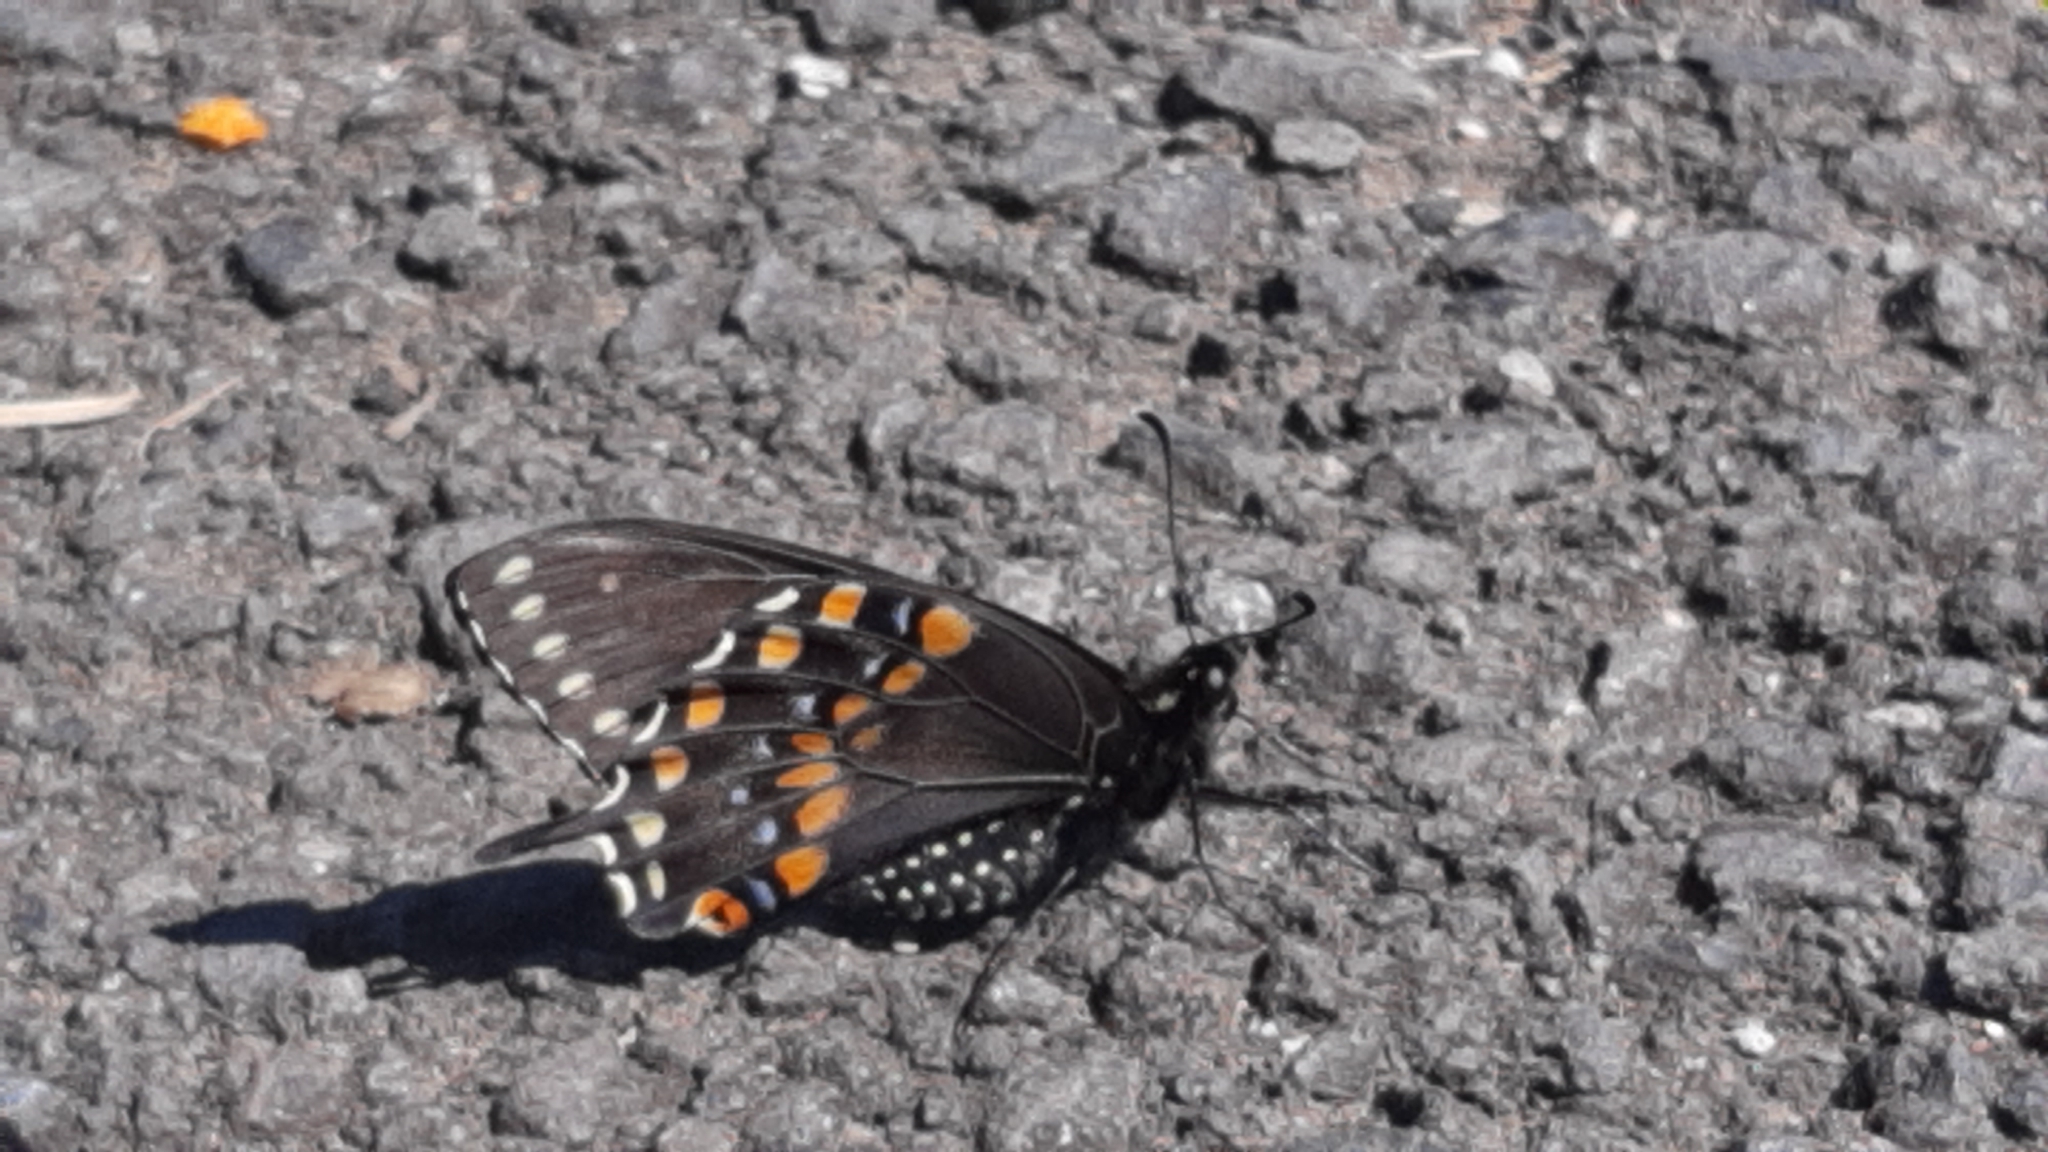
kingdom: Animalia
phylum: Arthropoda
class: Insecta
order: Lepidoptera
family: Papilionidae
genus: Papilio
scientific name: Papilio polyxenes
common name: Black swallowtail
